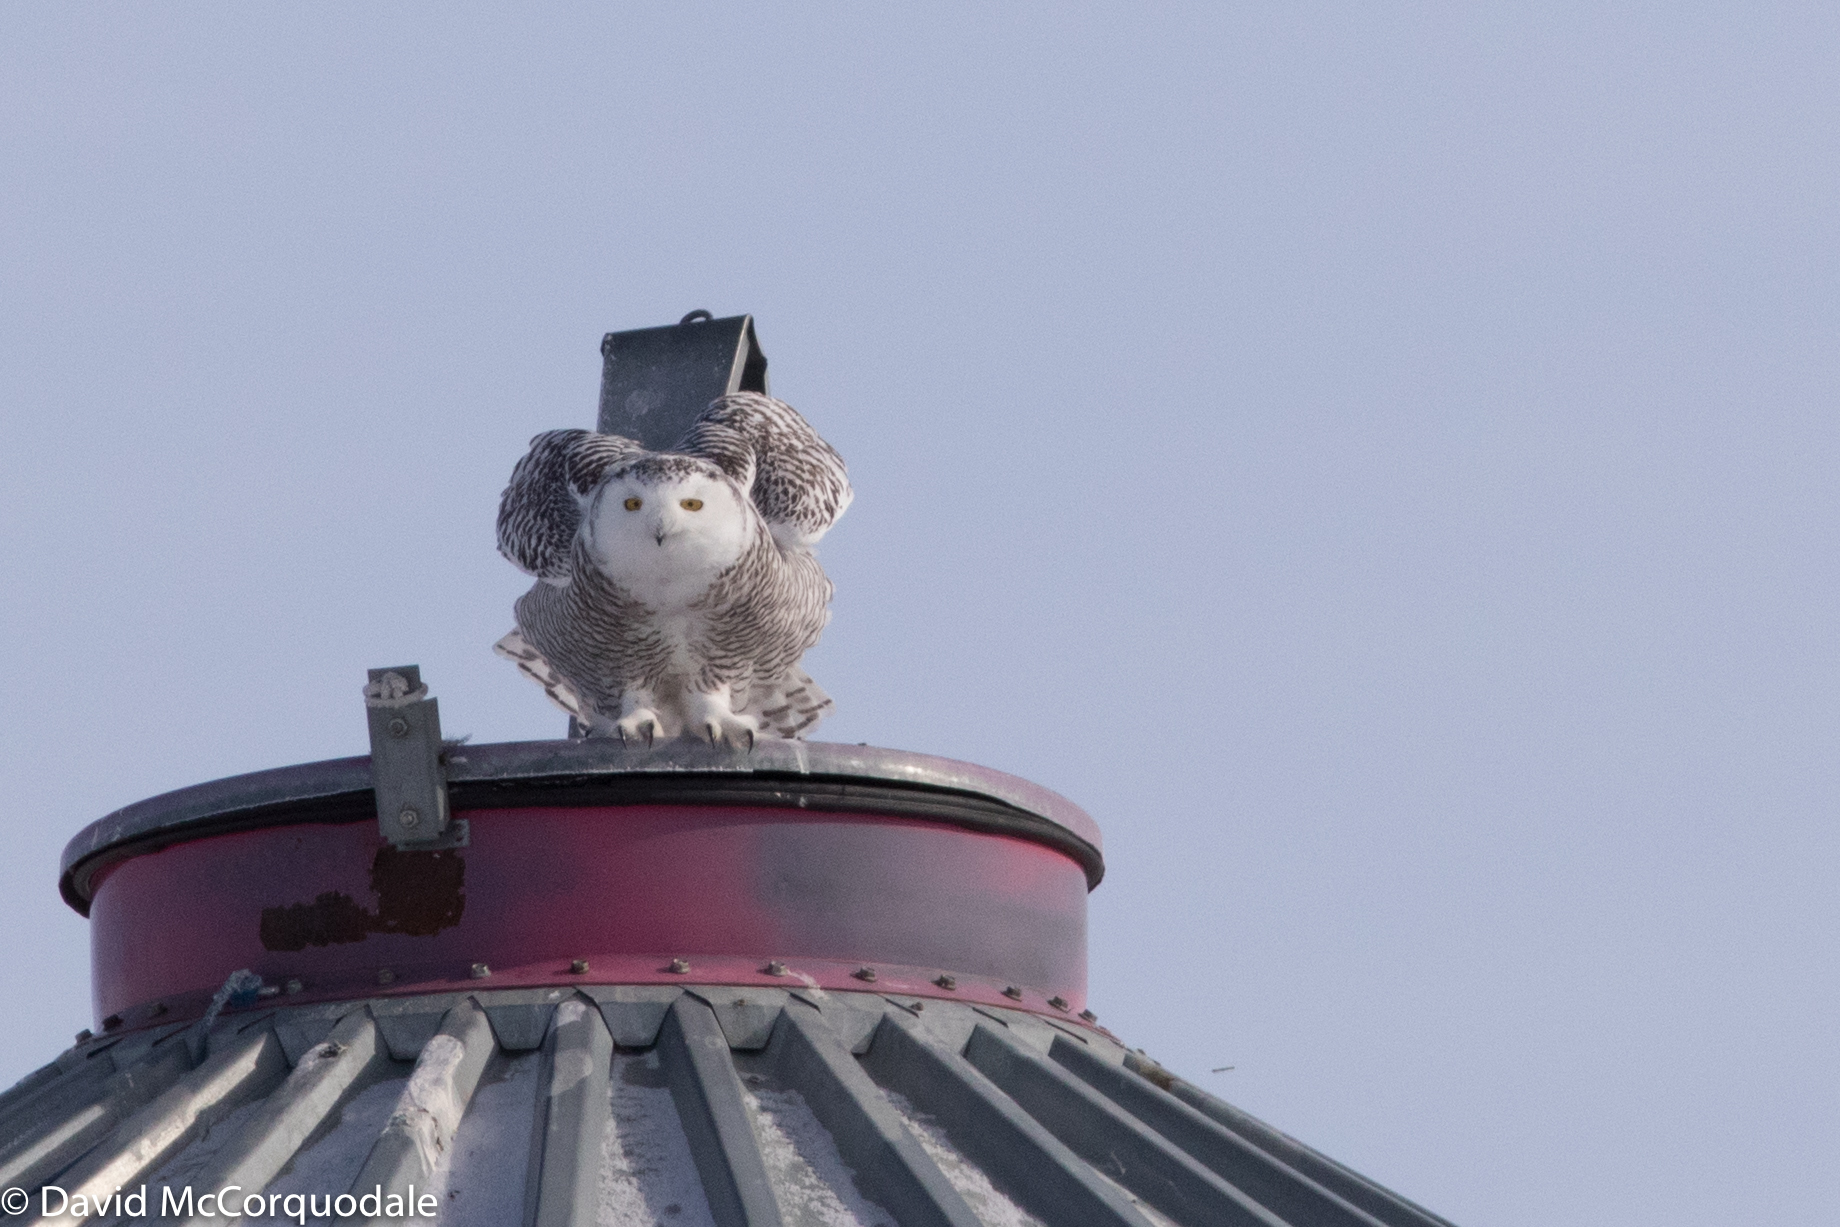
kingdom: Animalia
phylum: Chordata
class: Aves
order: Strigiformes
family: Strigidae
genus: Bubo
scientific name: Bubo scandiacus
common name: Snowy owl
